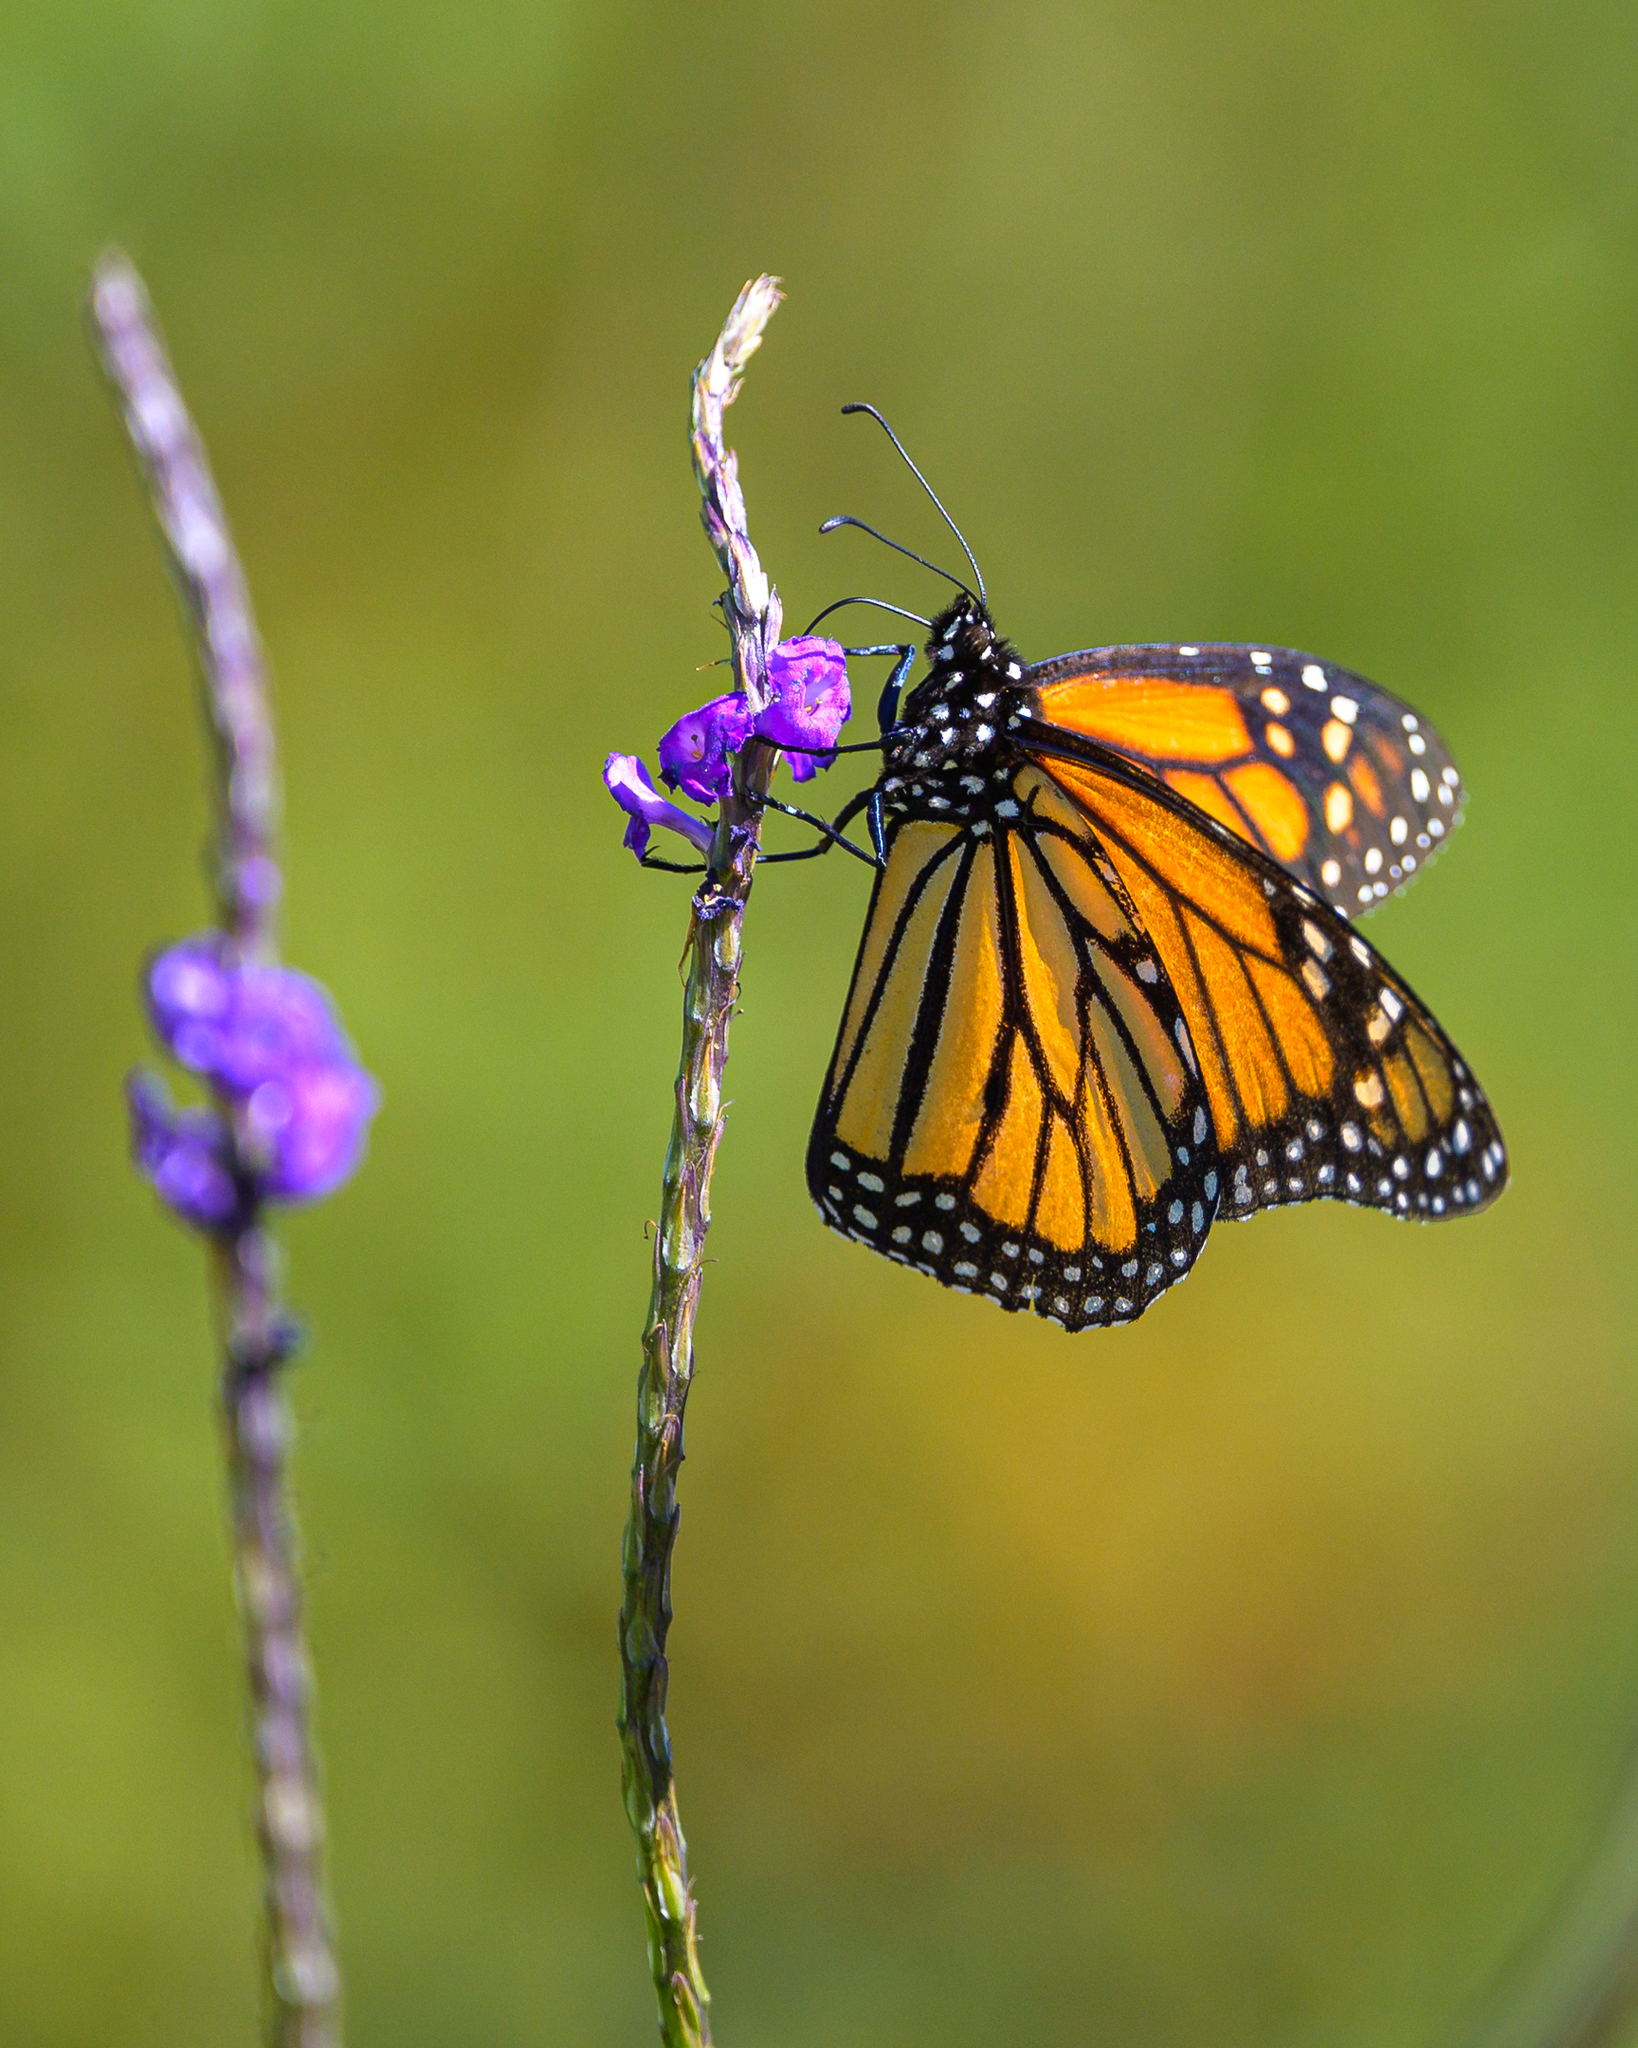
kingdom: Animalia
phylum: Arthropoda
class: Insecta
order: Lepidoptera
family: Nymphalidae
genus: Danaus
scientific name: Danaus plexippus
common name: Monarch
